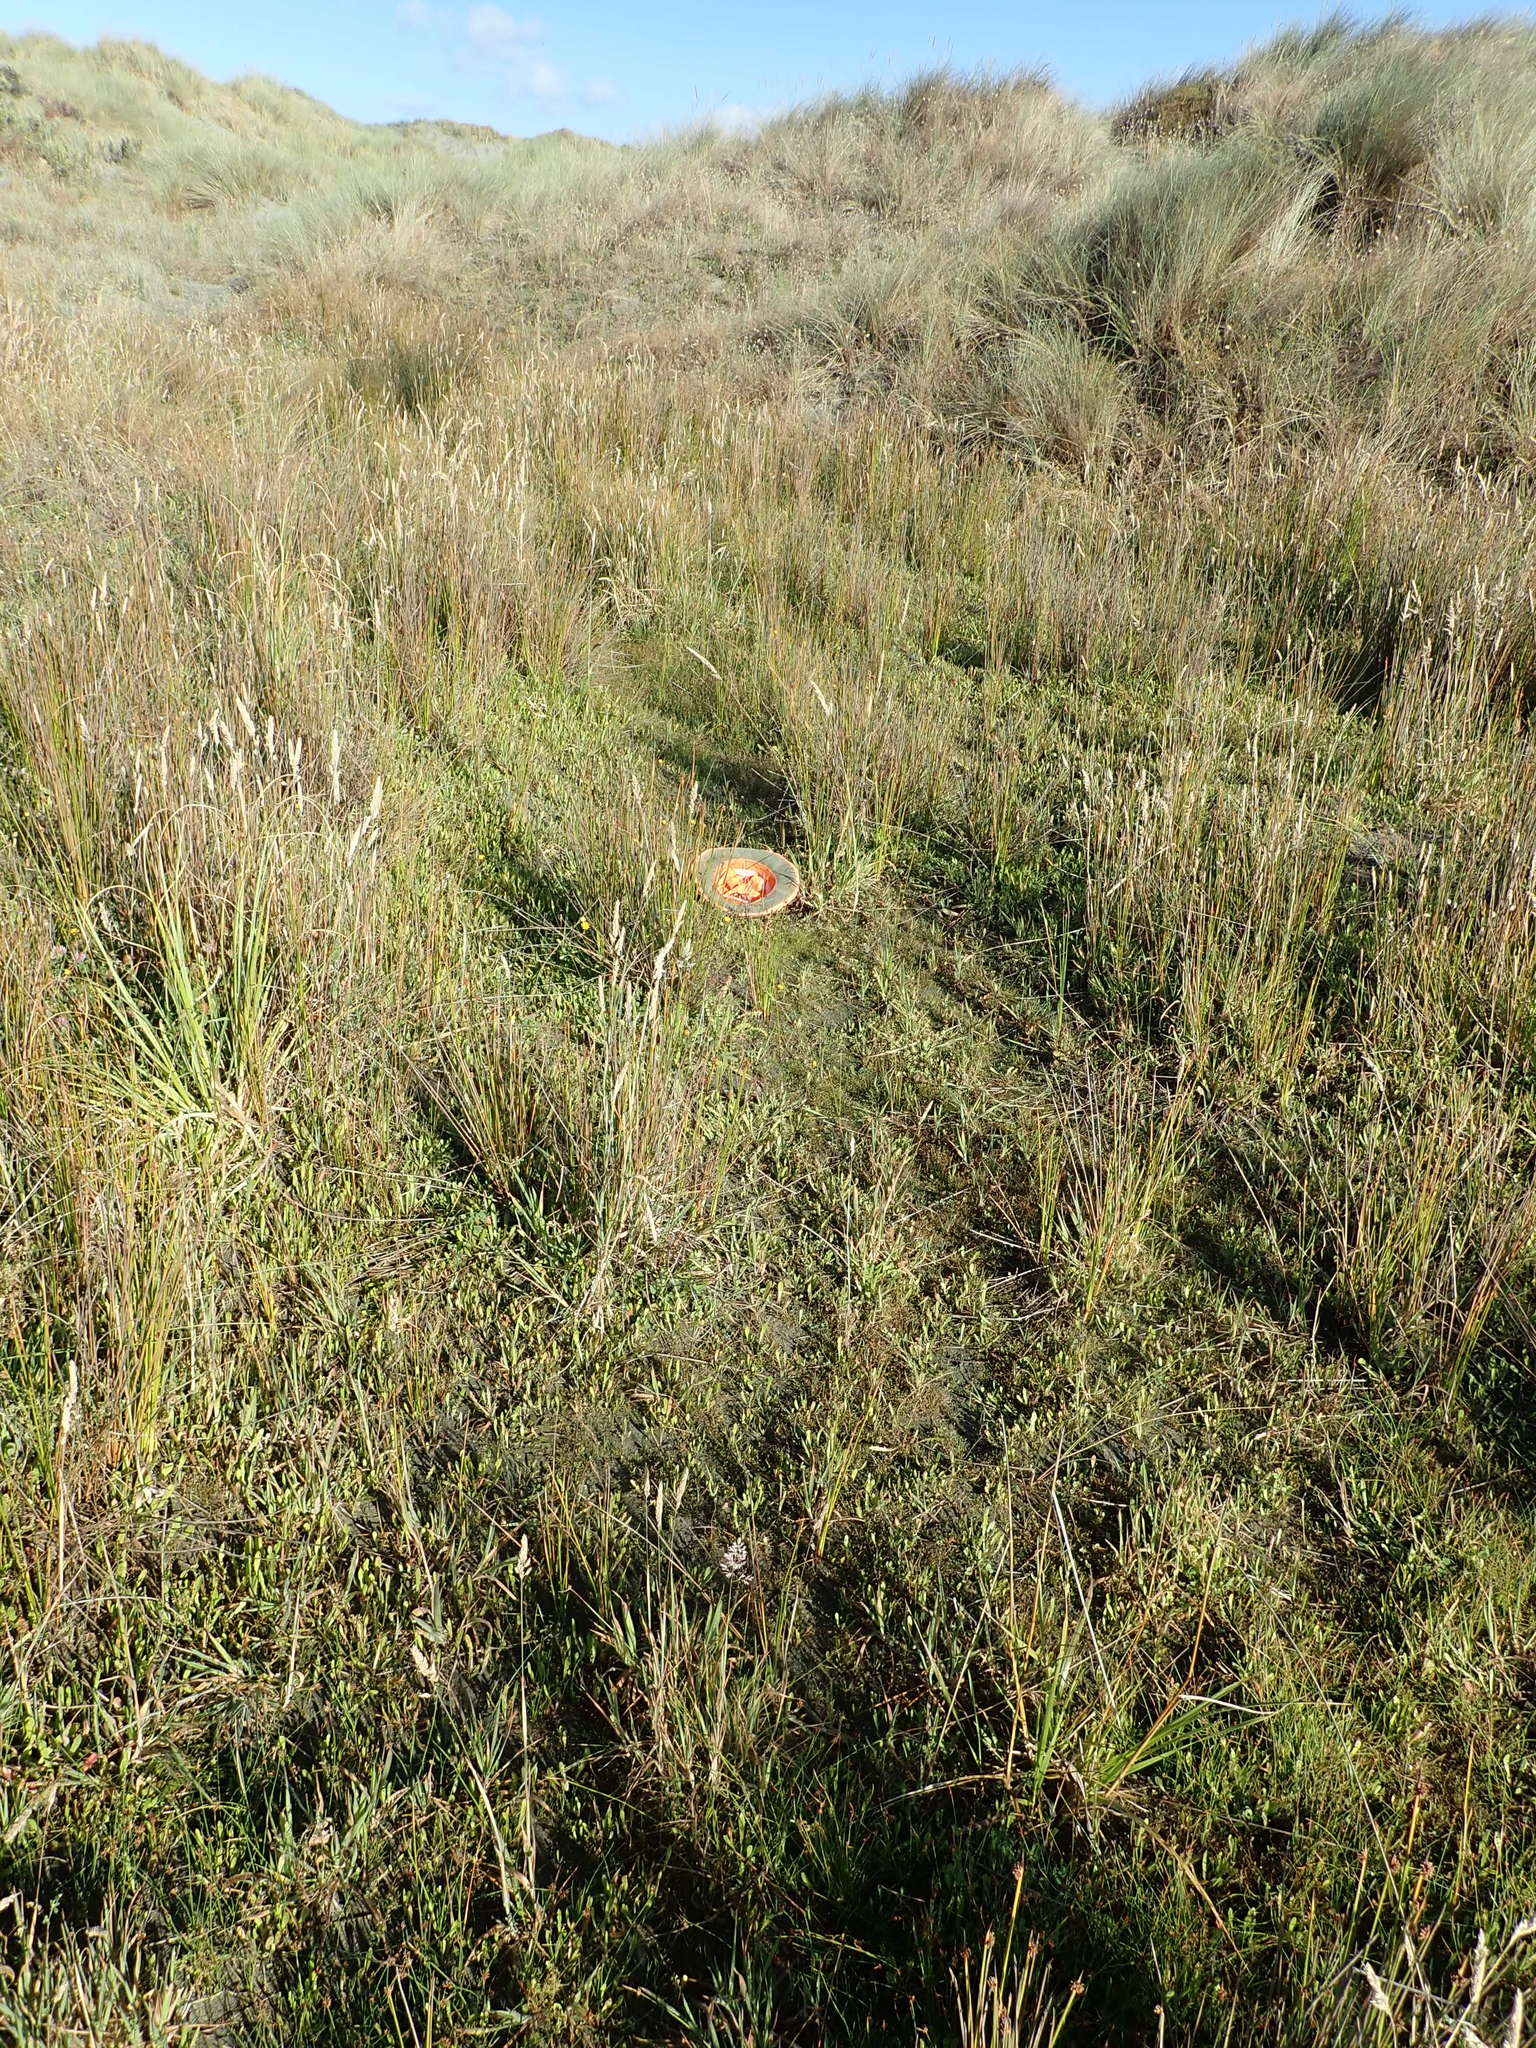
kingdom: Plantae
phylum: Tracheophyta
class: Liliopsida
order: Poales
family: Cyperaceae
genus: Isolepis
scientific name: Isolepis cernua
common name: Slender club-rush
